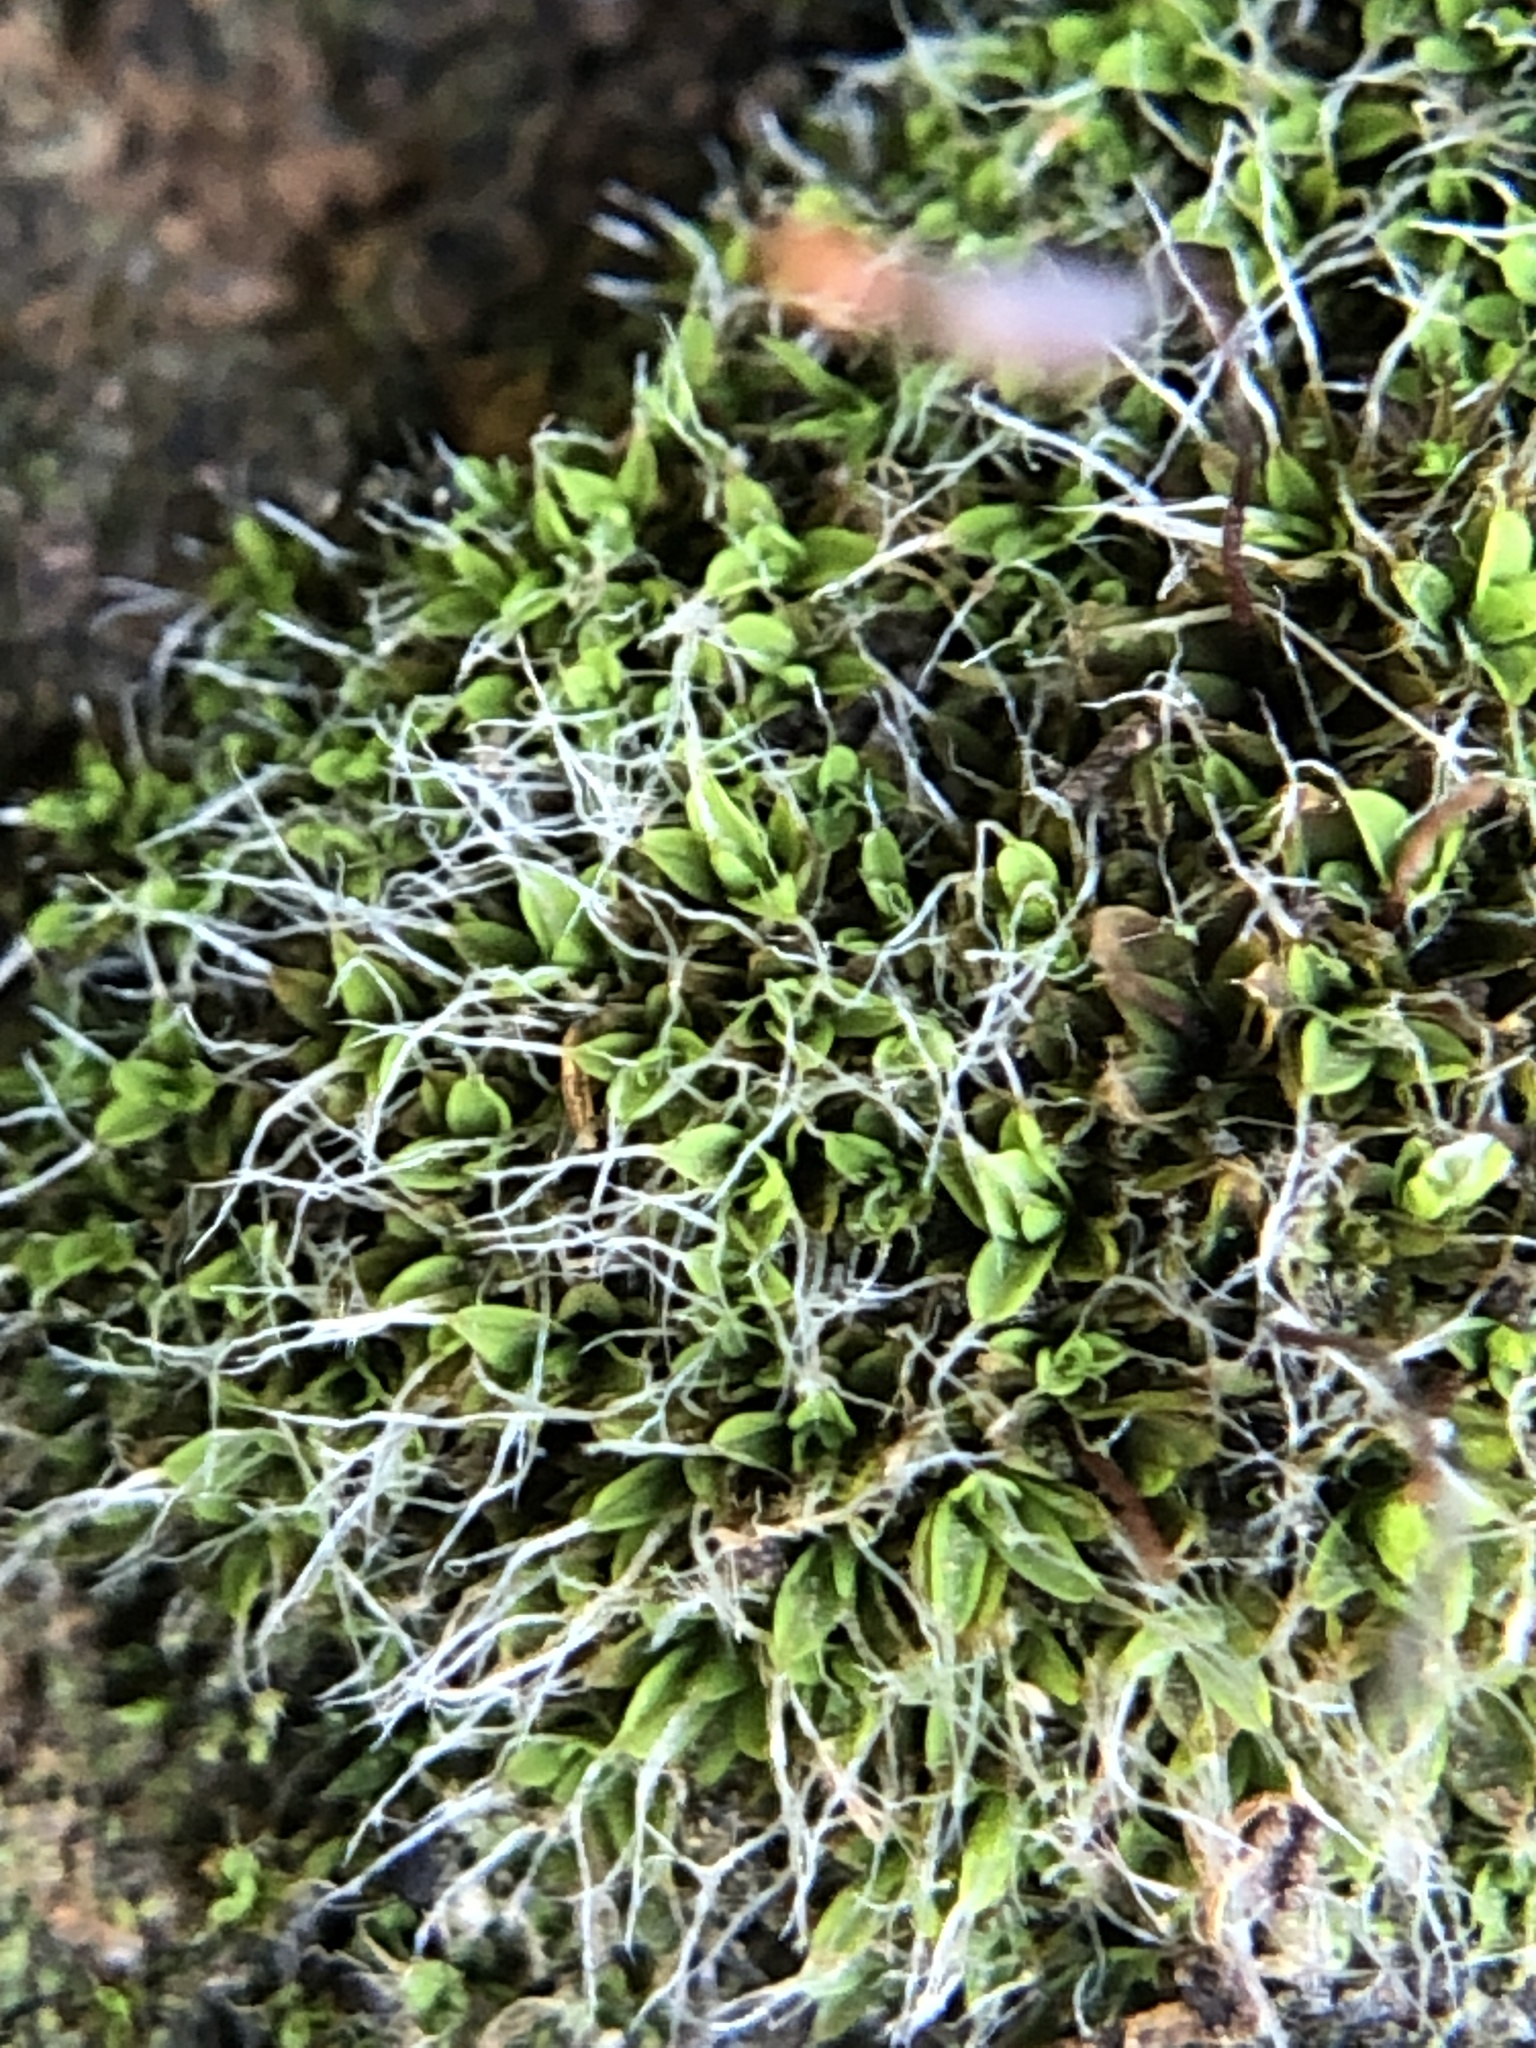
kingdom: Plantae
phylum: Bryophyta
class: Bryopsida
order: Pottiales
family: Pottiaceae
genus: Tortula
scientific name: Tortula muralis
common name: Wall screw-moss
